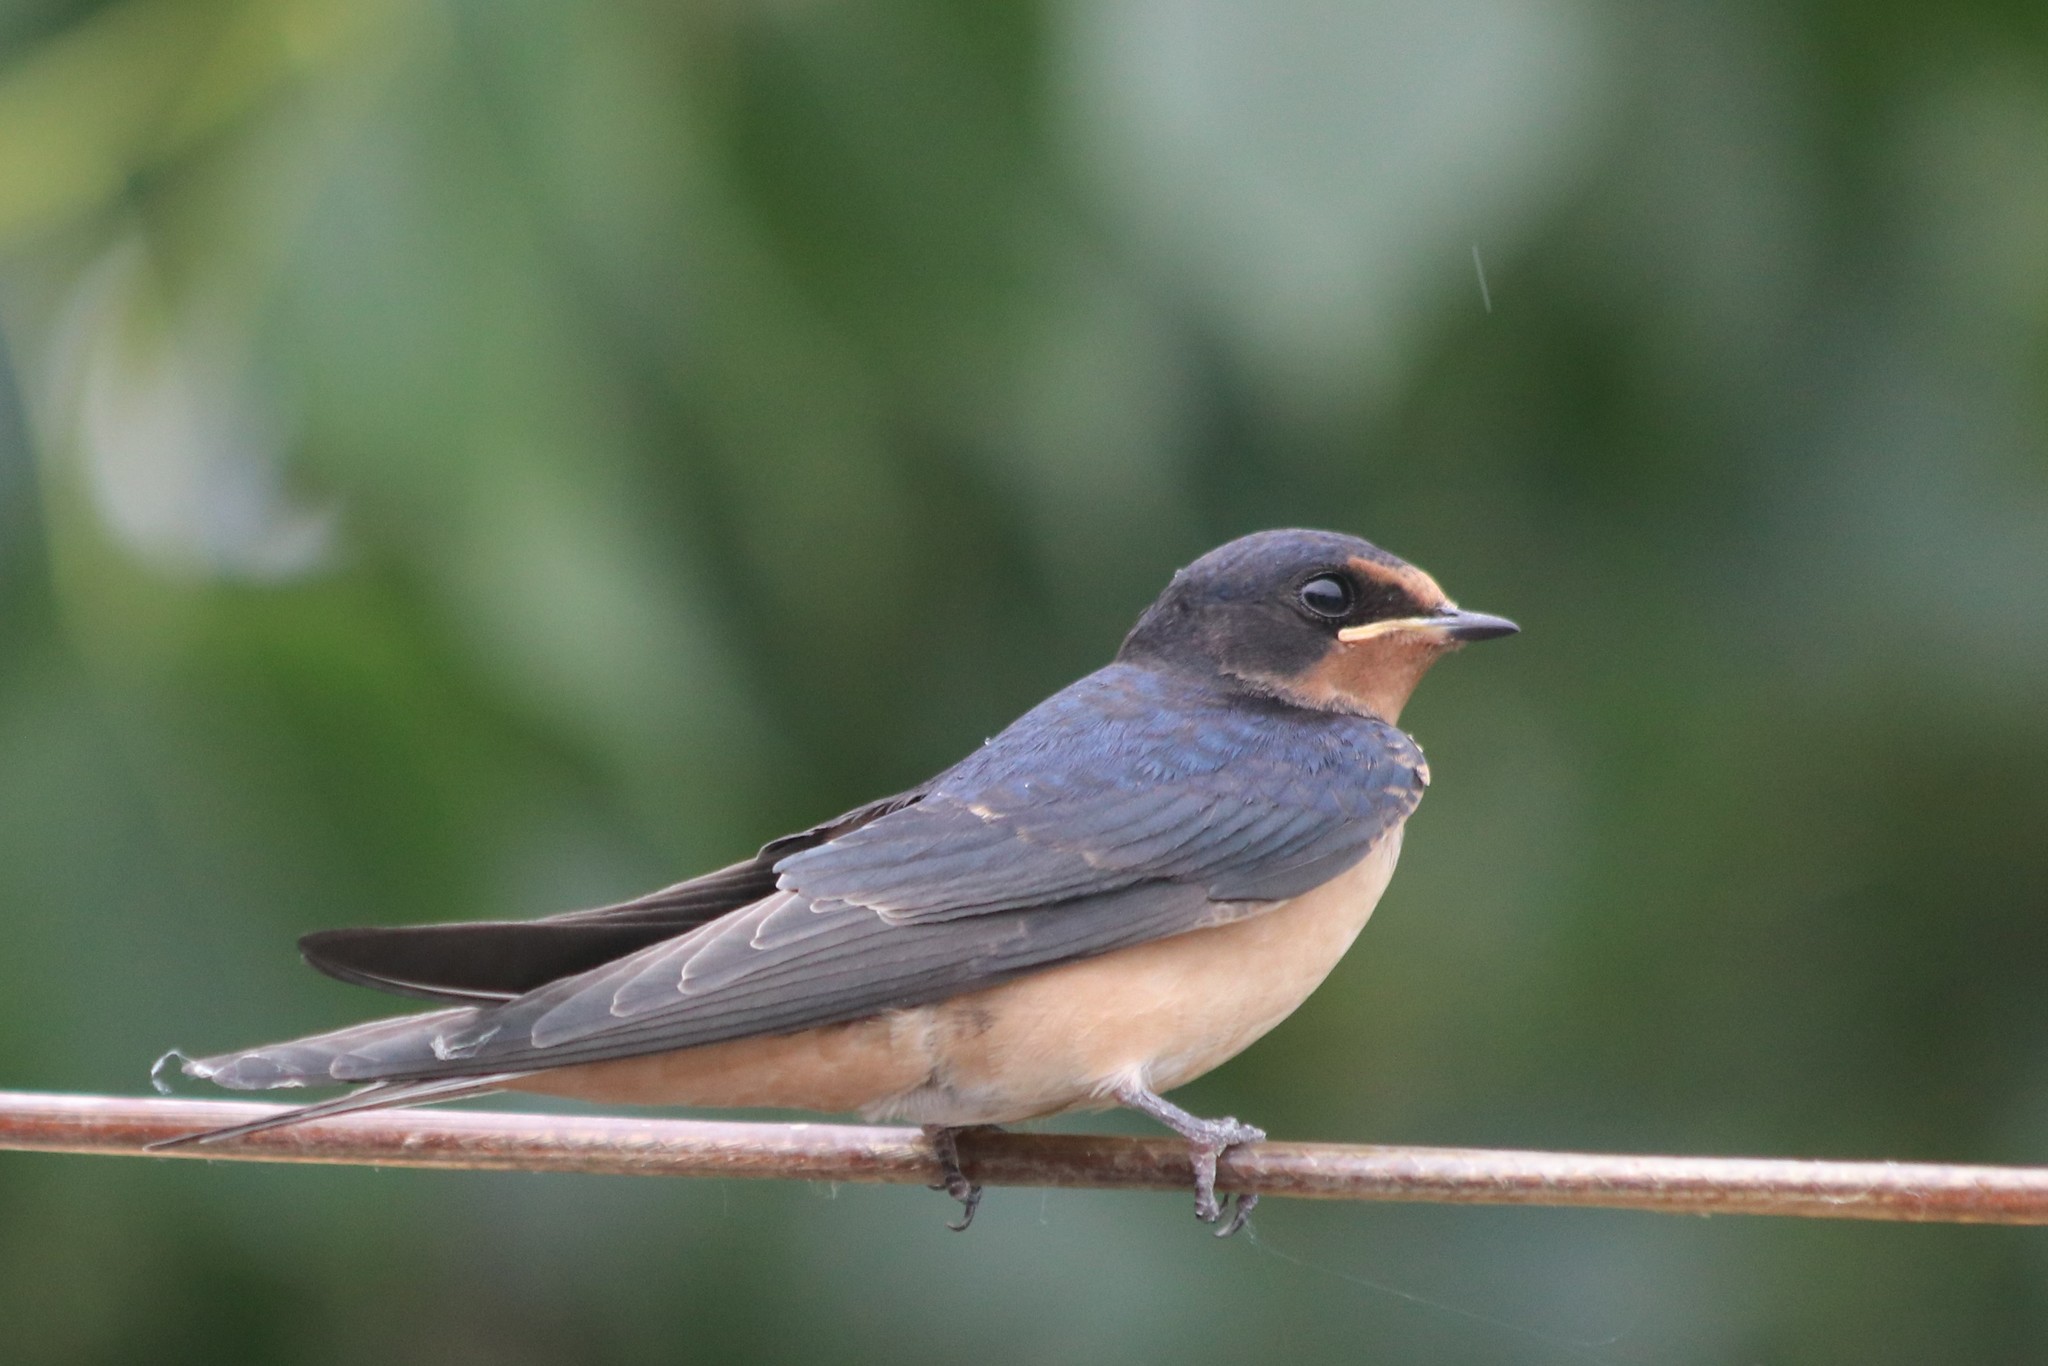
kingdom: Animalia
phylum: Chordata
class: Aves
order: Passeriformes
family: Hirundinidae
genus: Hirundo
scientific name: Hirundo rustica
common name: Barn swallow
